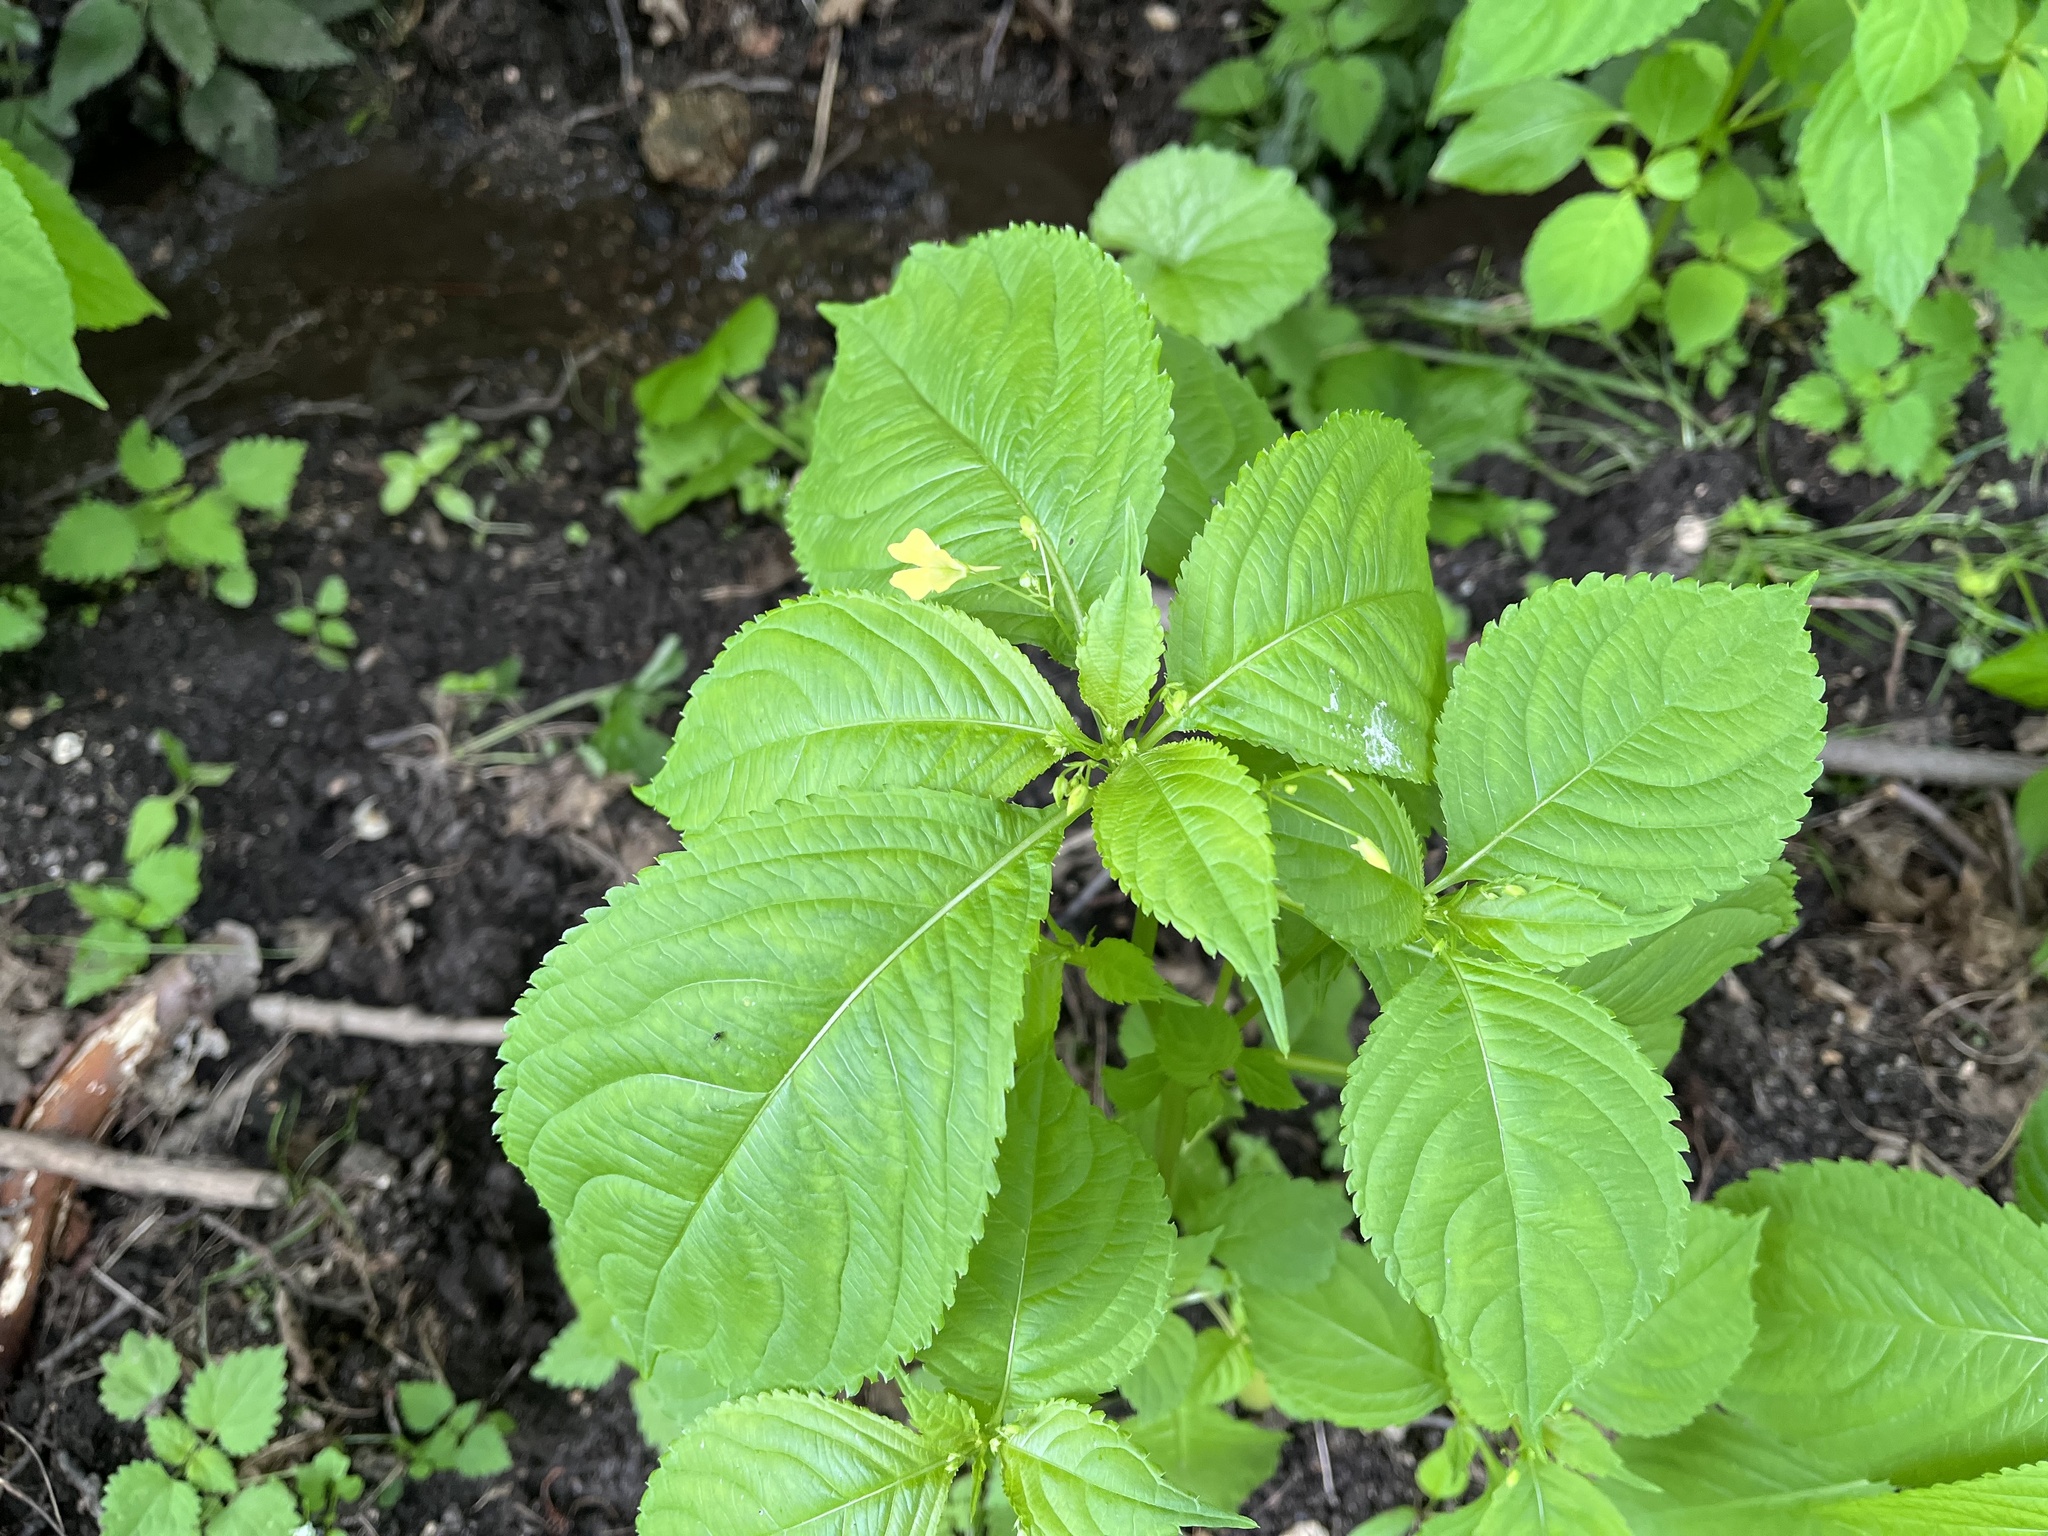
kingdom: Plantae
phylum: Tracheophyta
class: Magnoliopsida
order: Ericales
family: Balsaminaceae
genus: Impatiens
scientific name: Impatiens parviflora
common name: Small balsam
